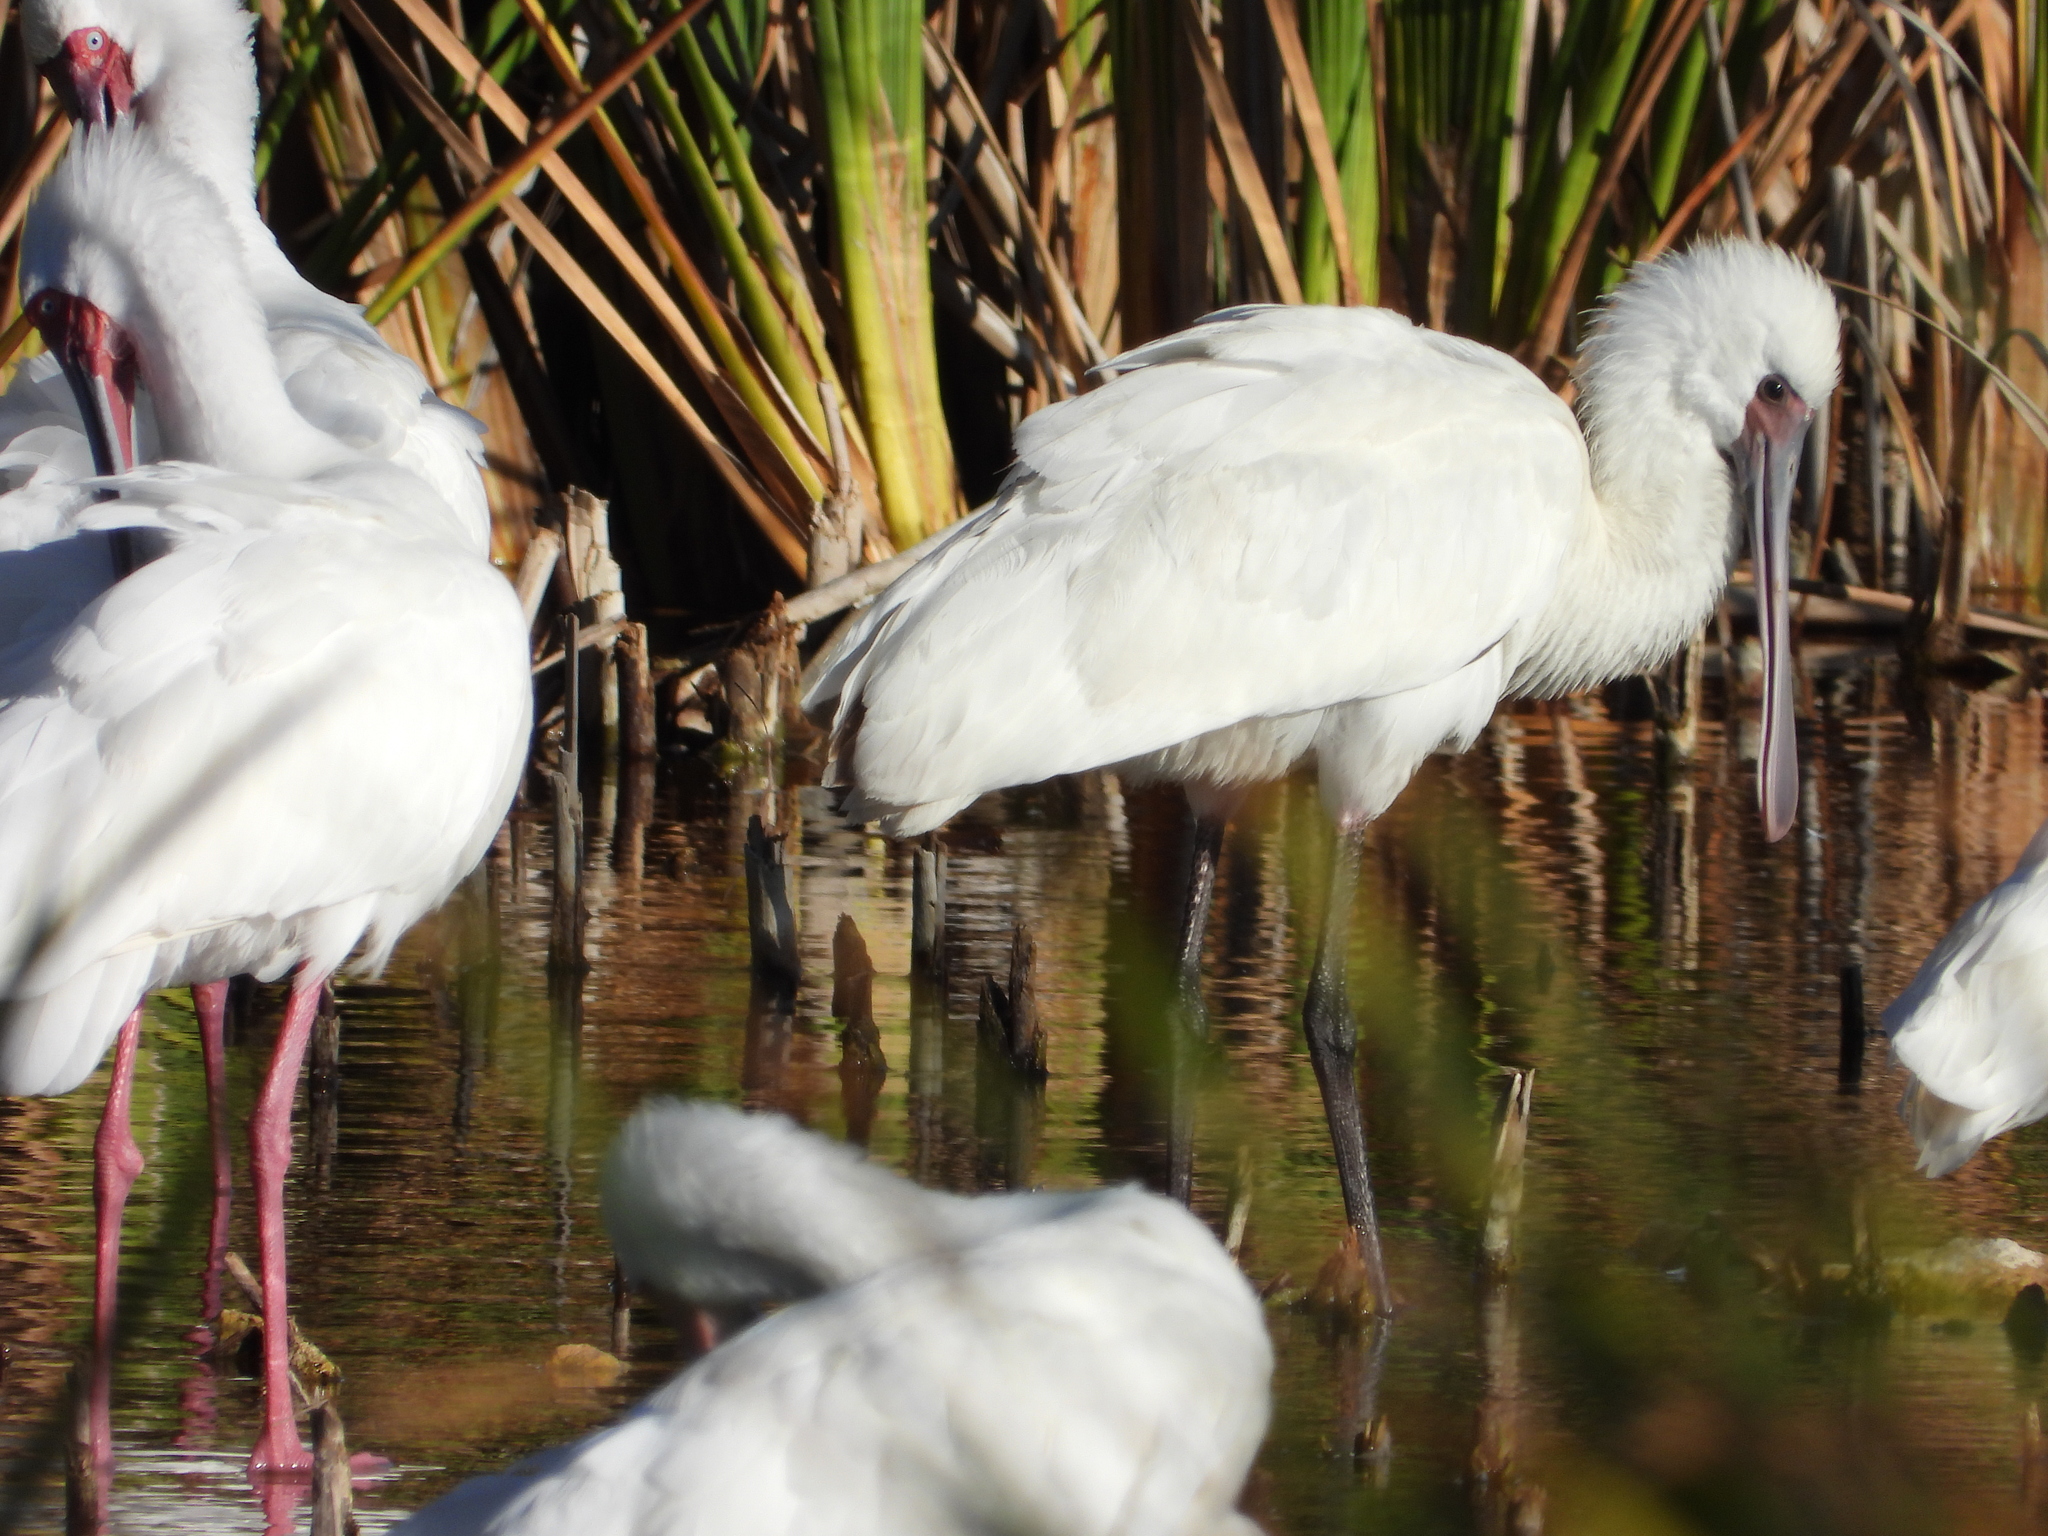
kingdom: Animalia
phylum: Chordata
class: Aves
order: Pelecaniformes
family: Threskiornithidae
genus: Platalea
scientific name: Platalea alba
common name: African spoonbill
